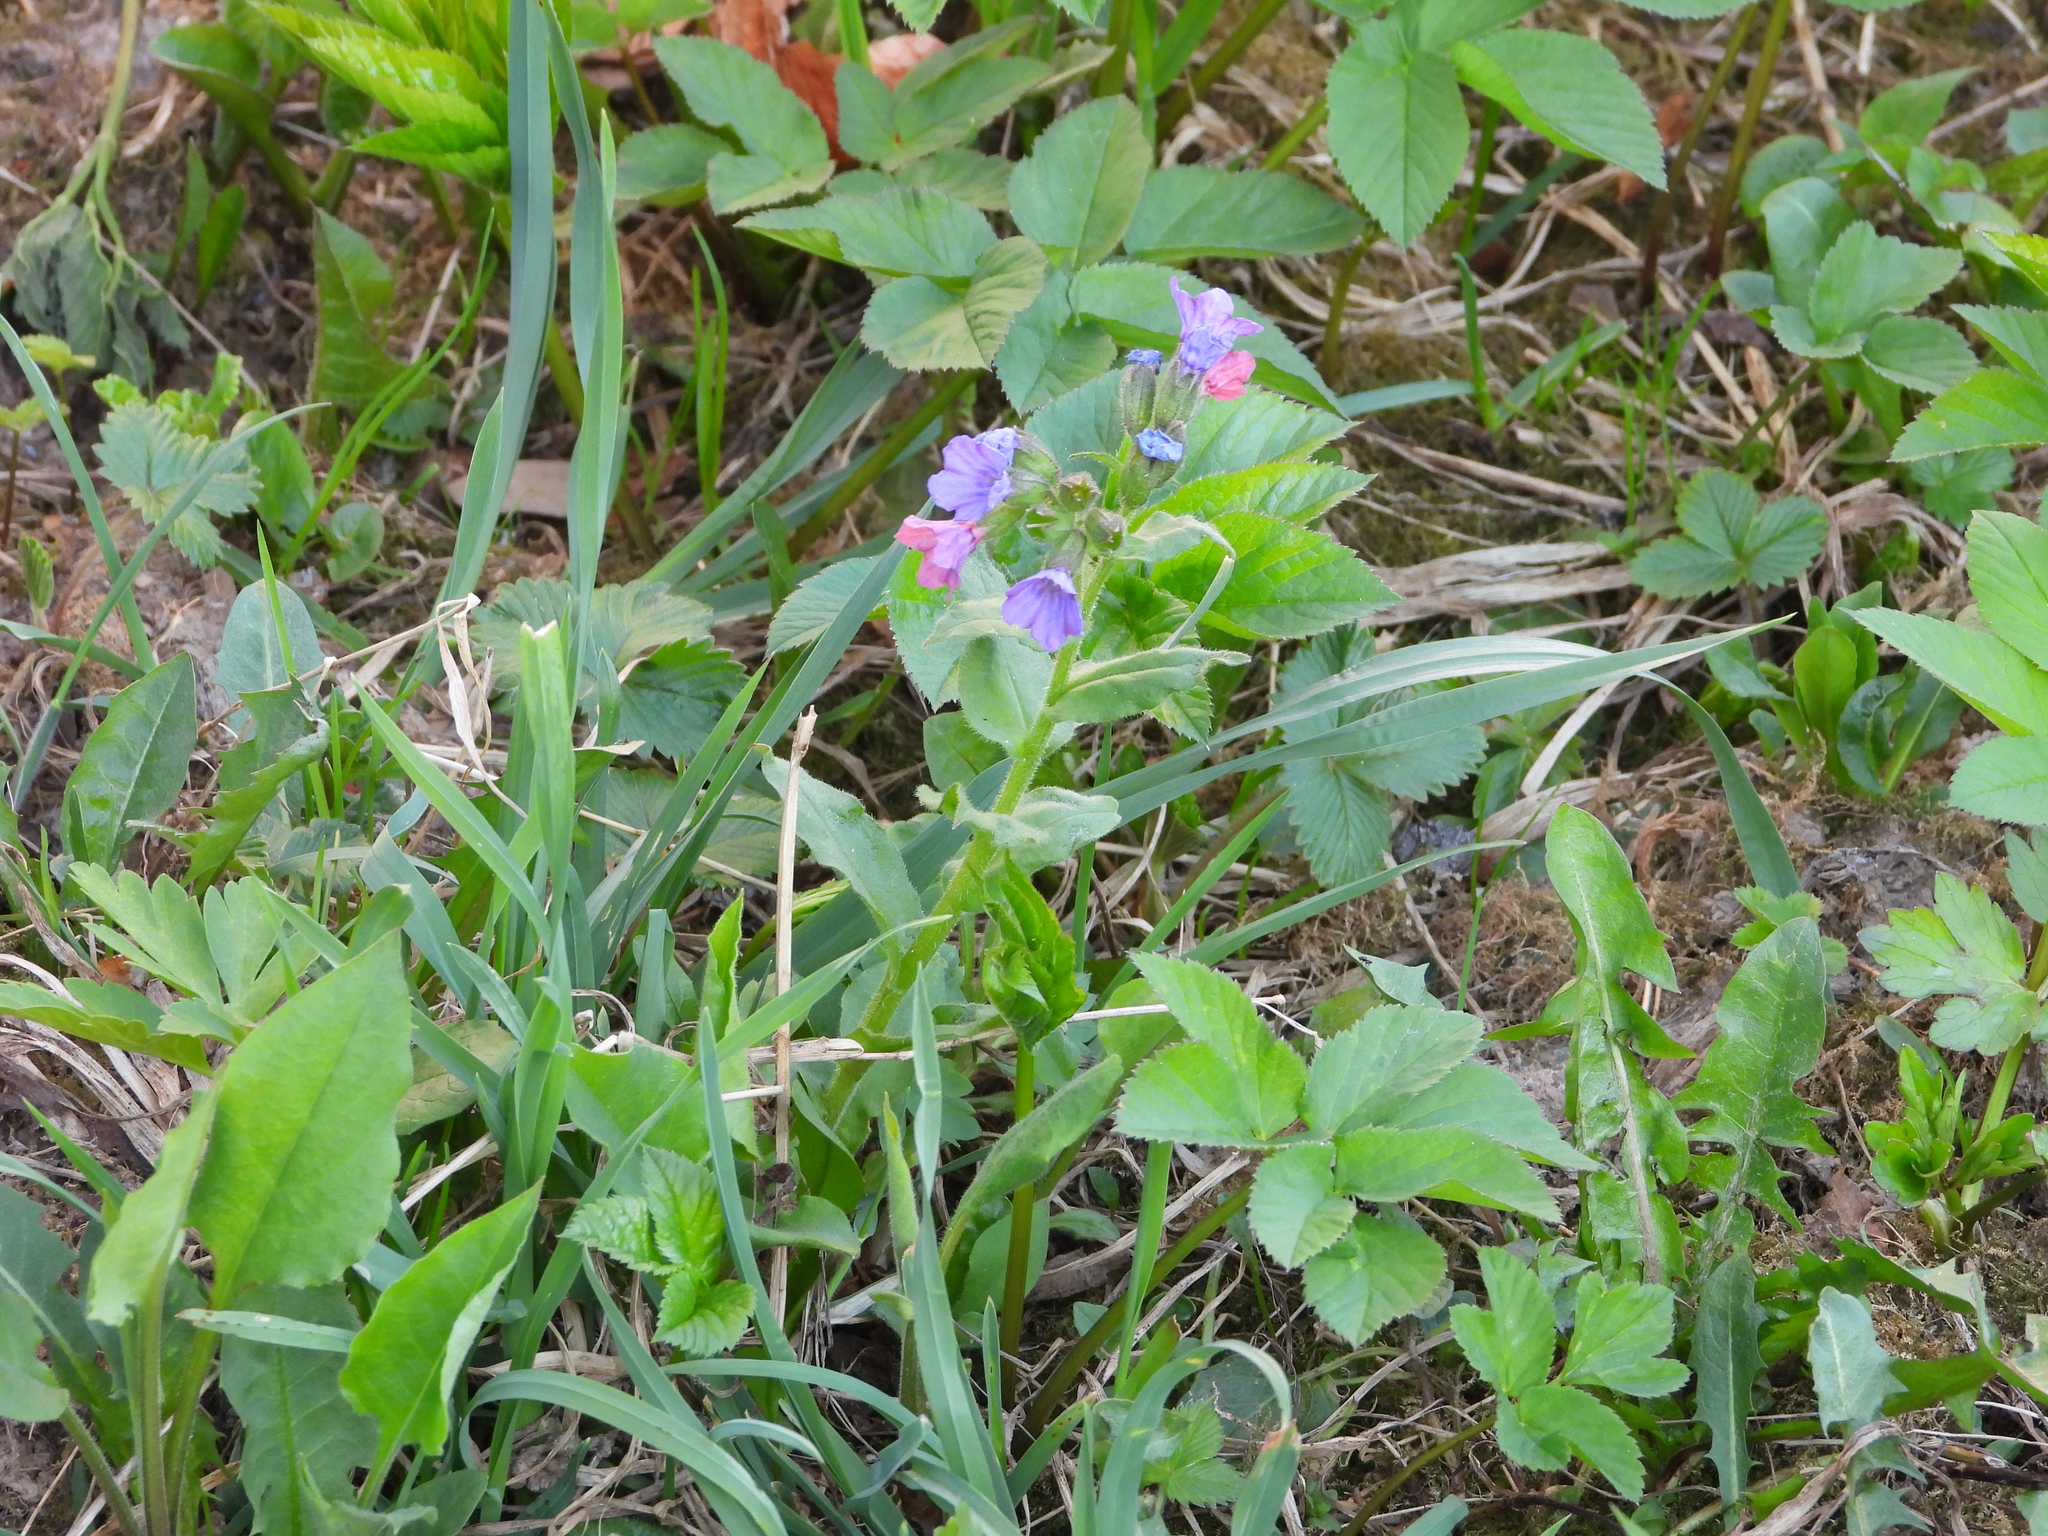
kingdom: Plantae
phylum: Tracheophyta
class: Magnoliopsida
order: Boraginales
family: Boraginaceae
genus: Pulmonaria
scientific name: Pulmonaria obscura
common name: Suffolk lungwort
